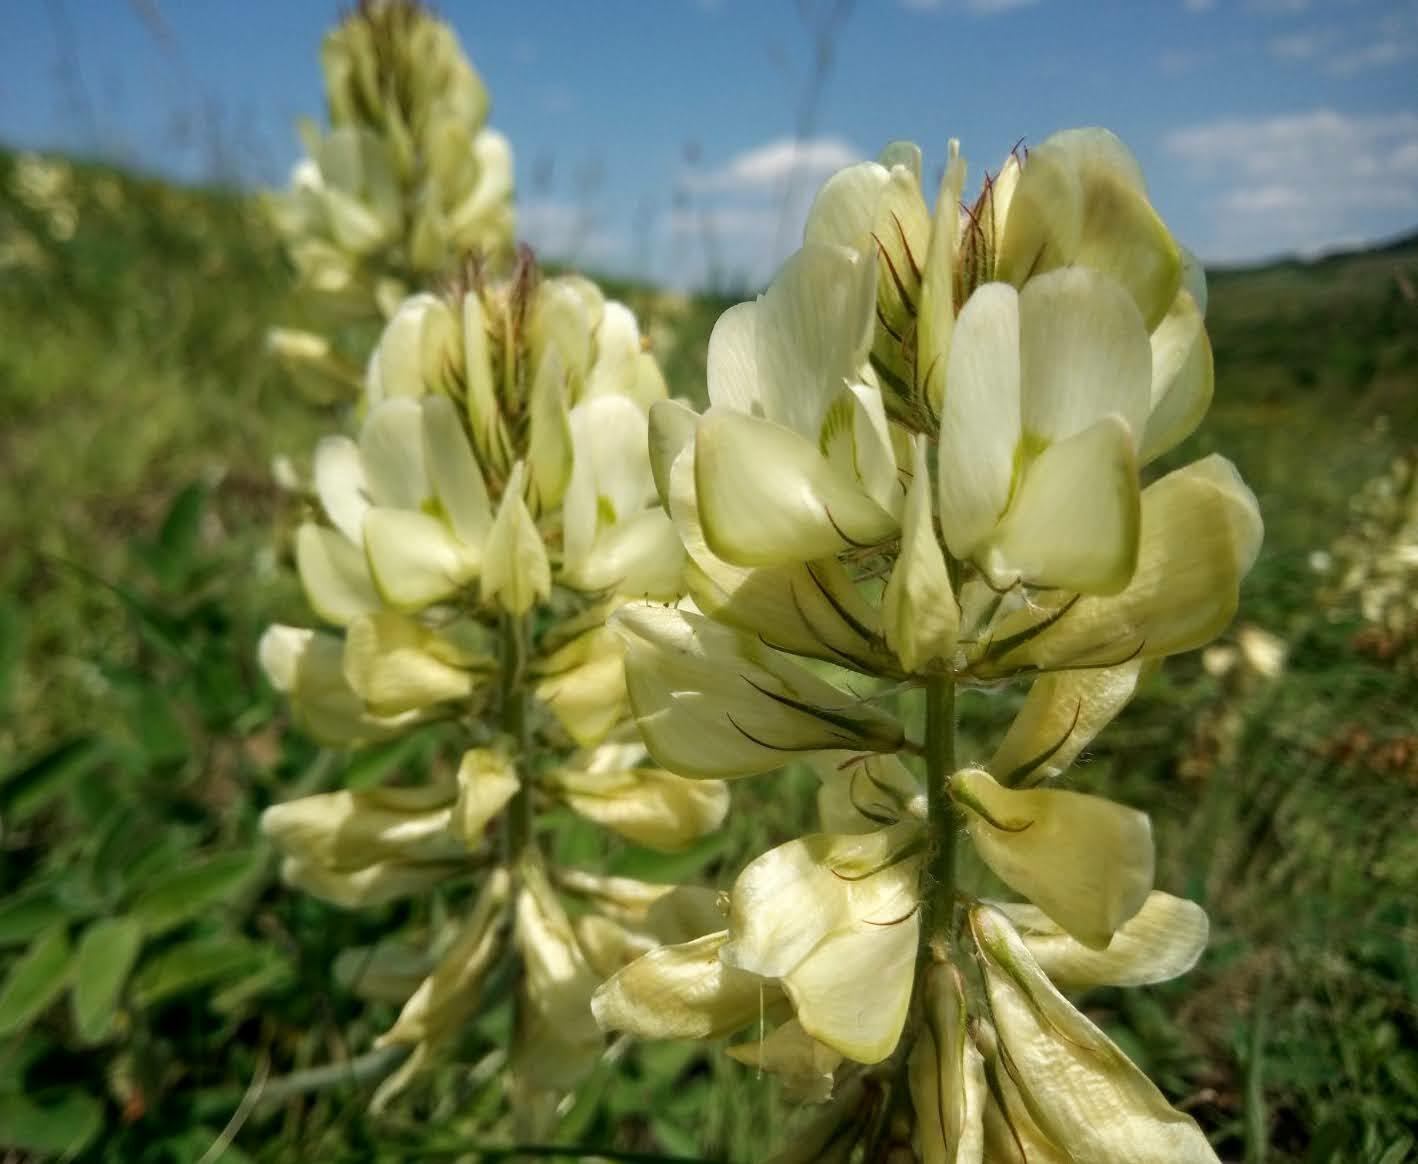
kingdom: Plantae
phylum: Tracheophyta
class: Magnoliopsida
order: Fabales
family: Fabaceae
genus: Hedysarum
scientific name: Hedysarum grandiflorum
